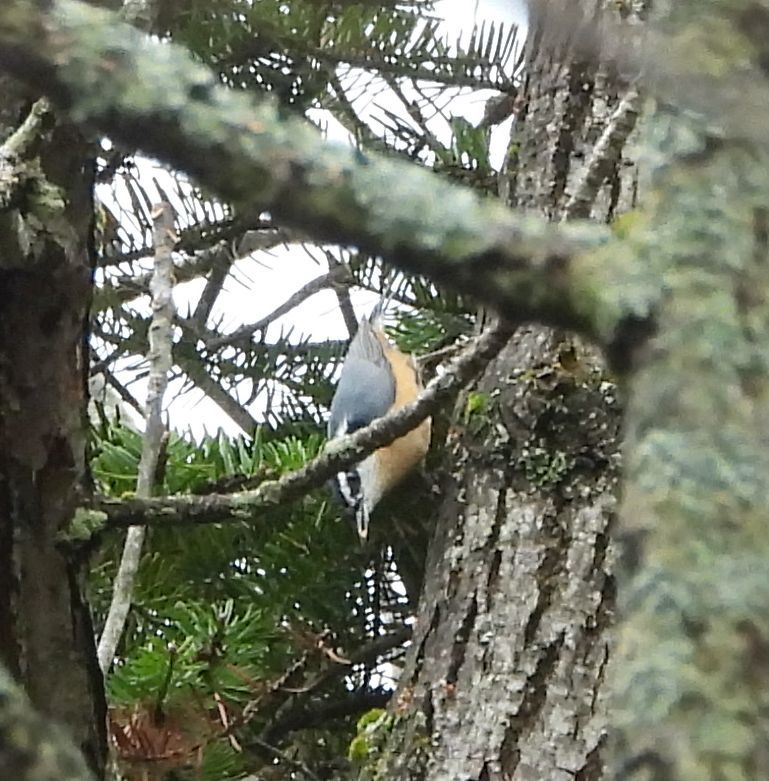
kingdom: Animalia
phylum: Chordata
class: Aves
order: Passeriformes
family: Sittidae
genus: Sitta
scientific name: Sitta canadensis
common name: Red-breasted nuthatch
